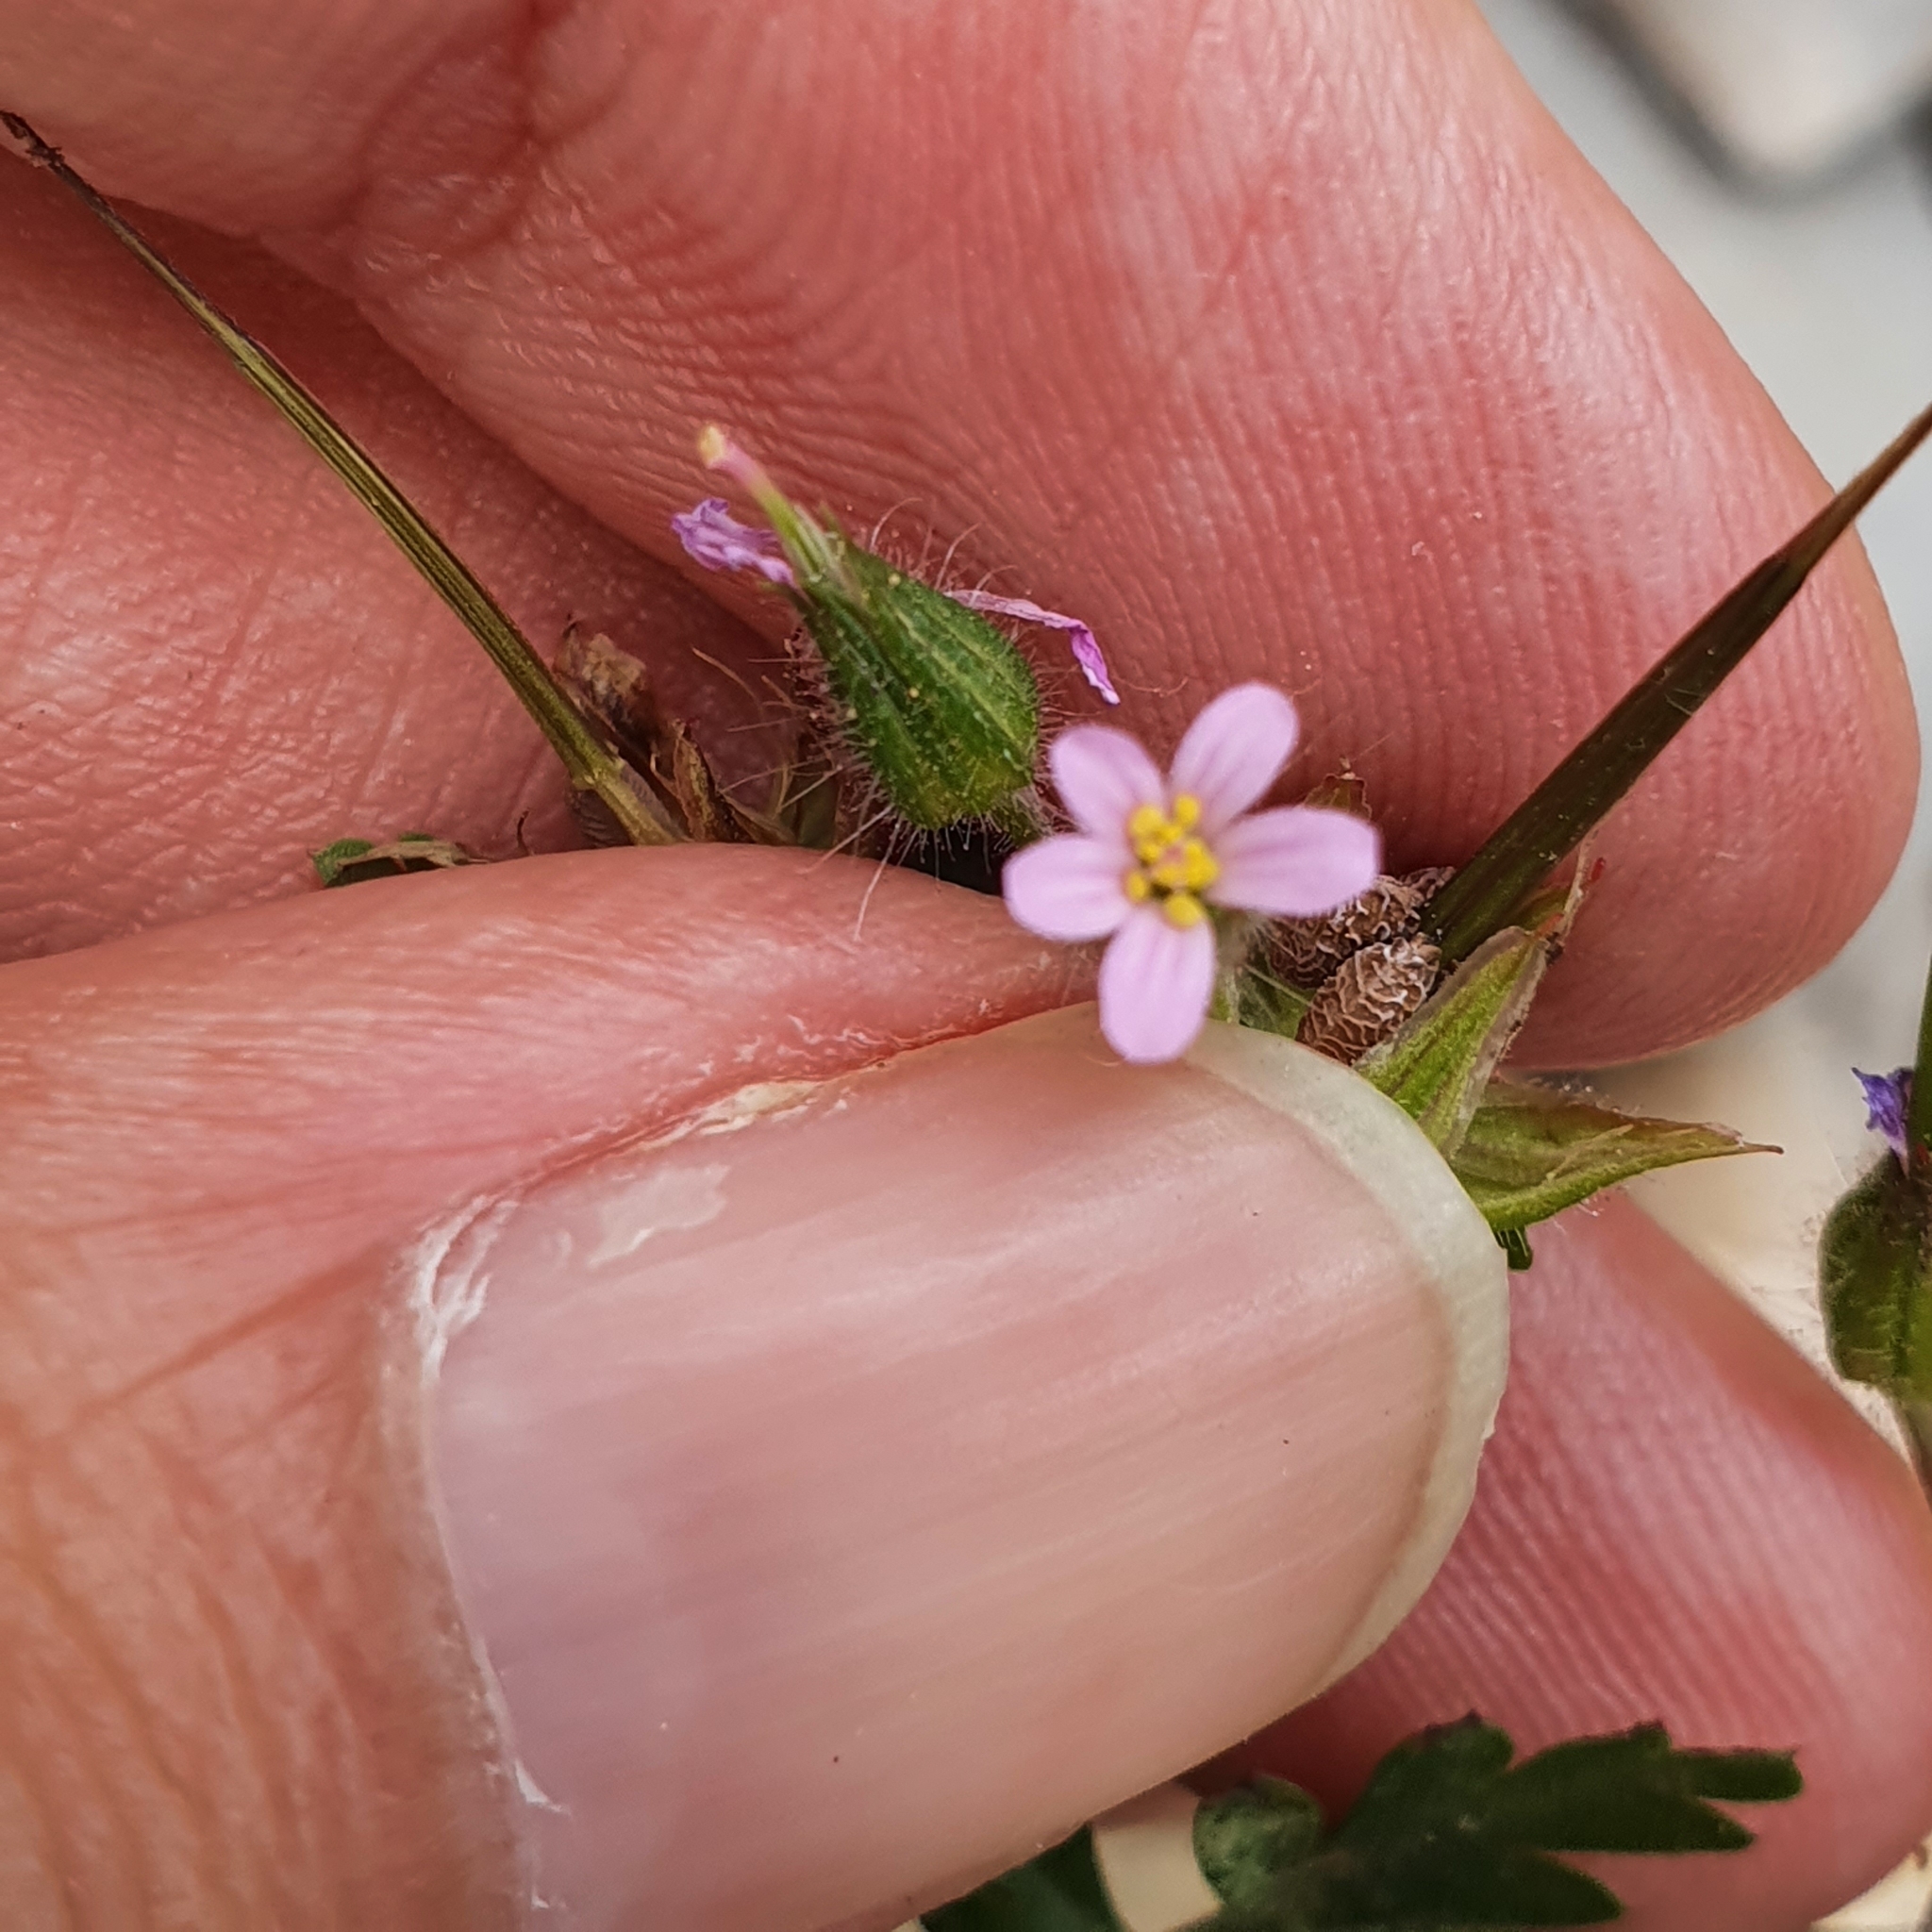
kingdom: Plantae
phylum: Tracheophyta
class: Magnoliopsida
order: Geraniales
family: Geraniaceae
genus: Geranium
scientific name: Geranium purpureum
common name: Little-robin
